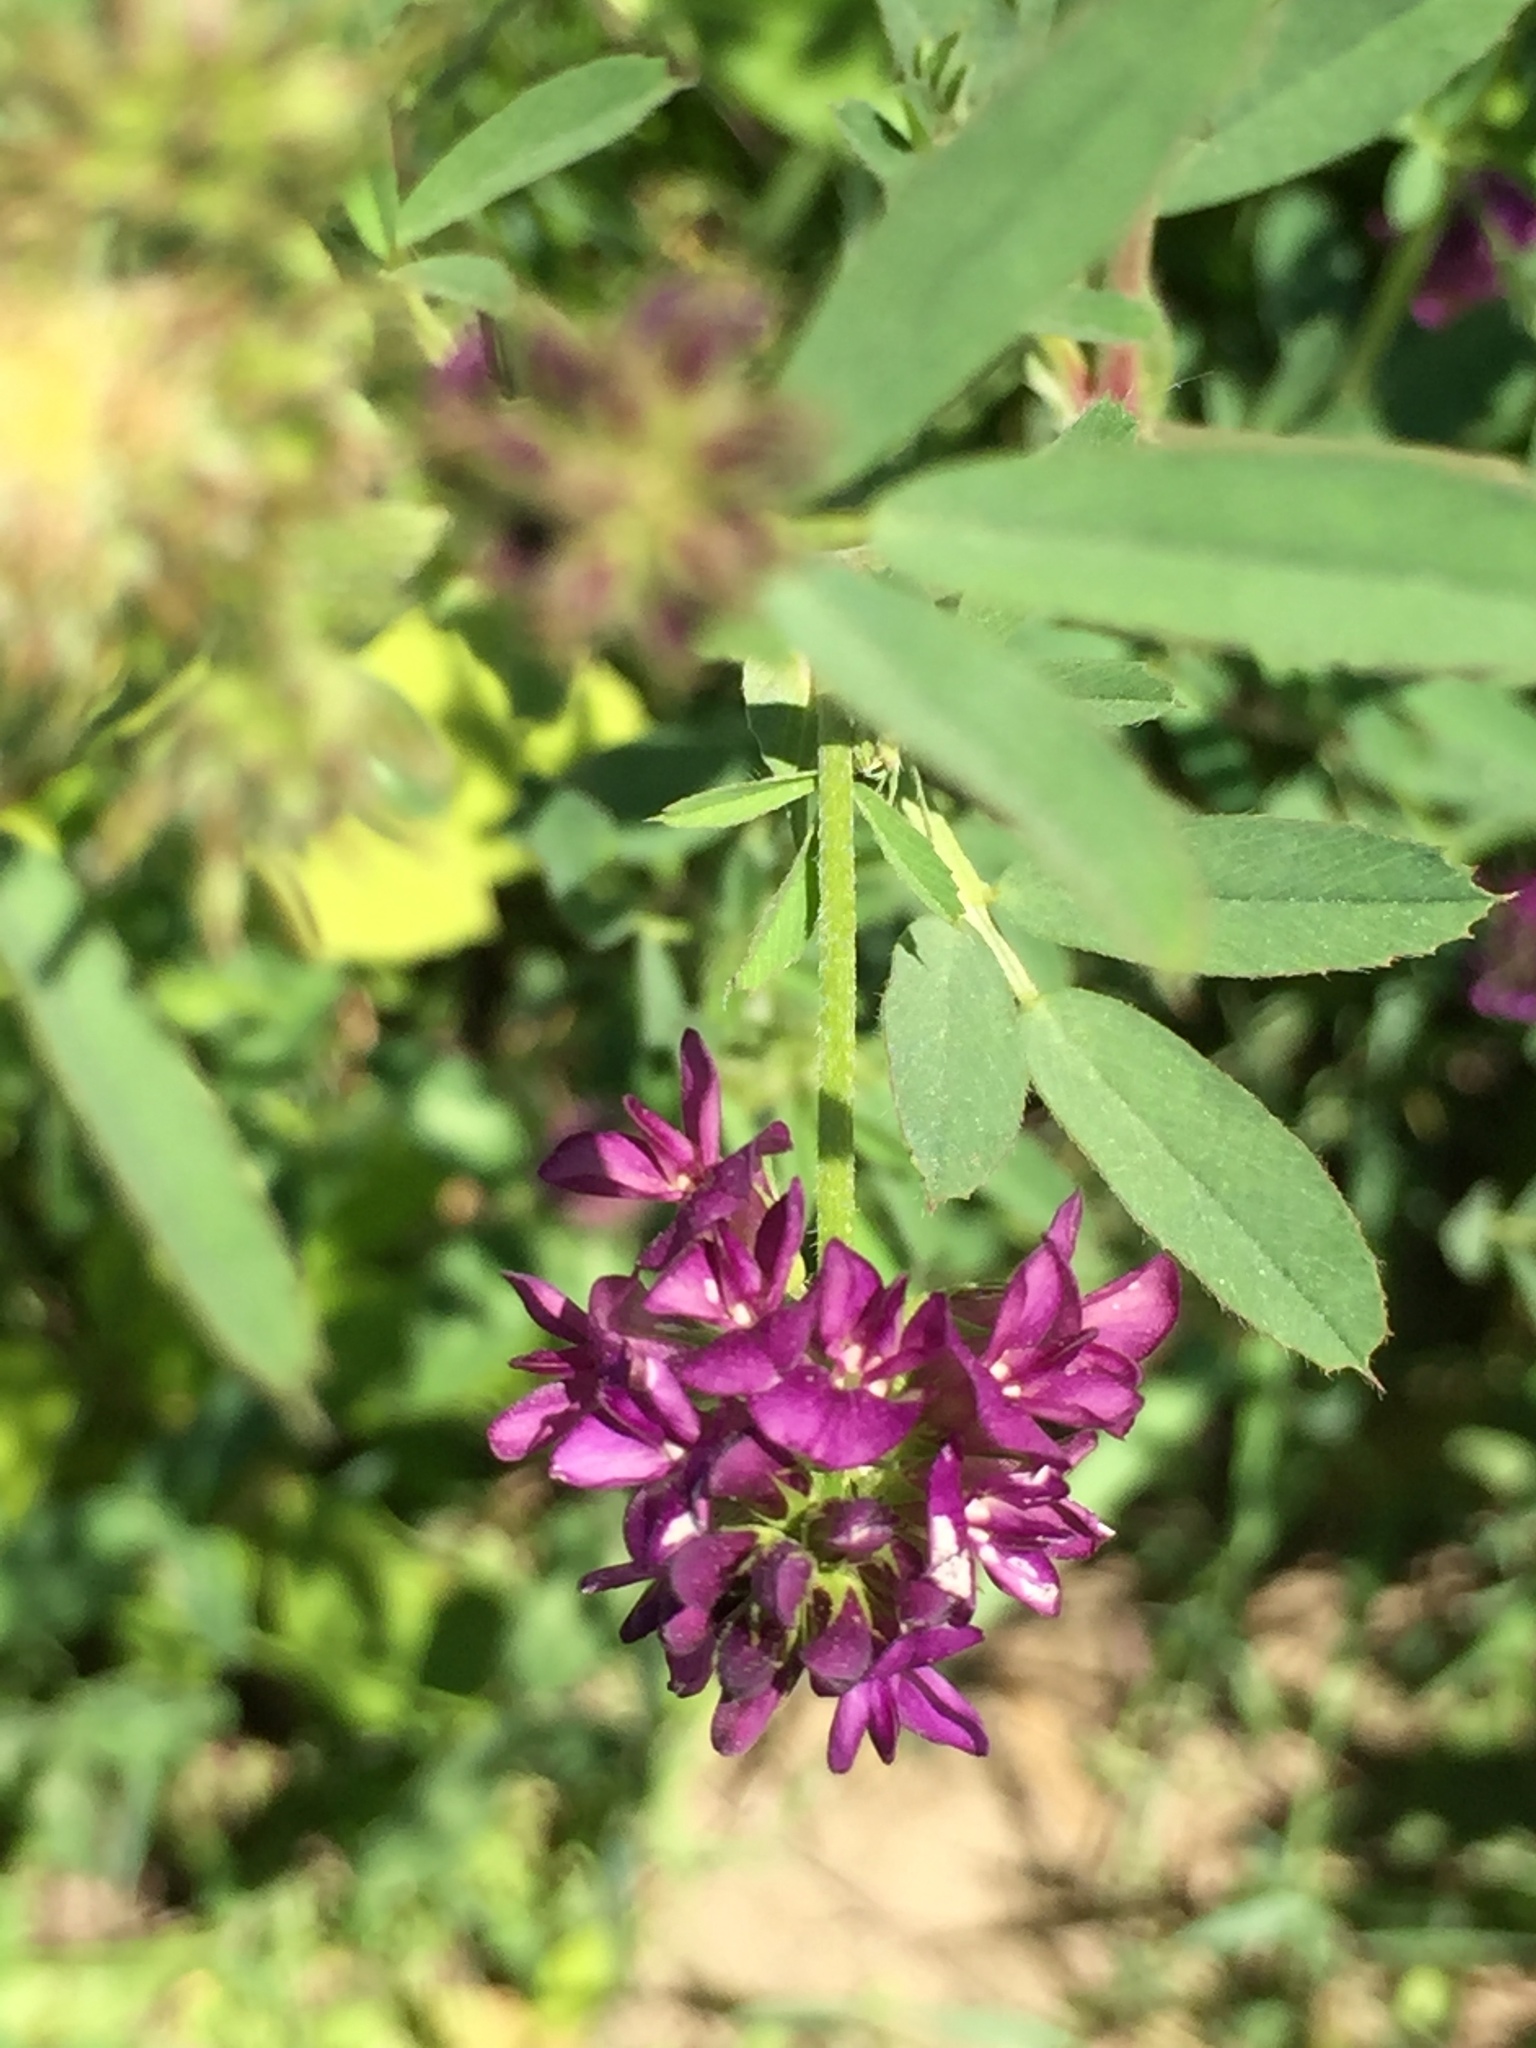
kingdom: Plantae
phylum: Tracheophyta
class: Magnoliopsida
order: Fabales
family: Fabaceae
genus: Medicago
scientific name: Medicago sativa
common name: Alfalfa
